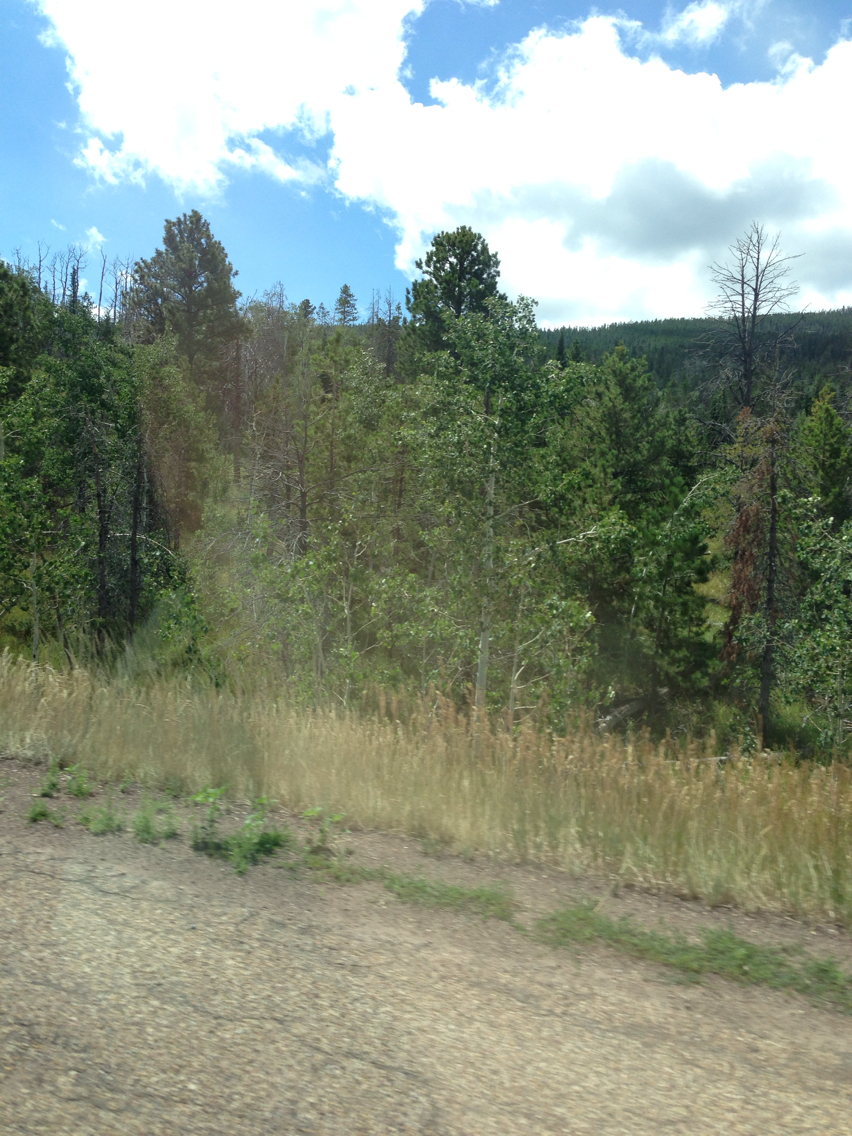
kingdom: Plantae
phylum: Tracheophyta
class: Magnoliopsida
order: Malpighiales
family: Salicaceae
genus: Populus
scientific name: Populus tremuloides
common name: Quaking aspen
